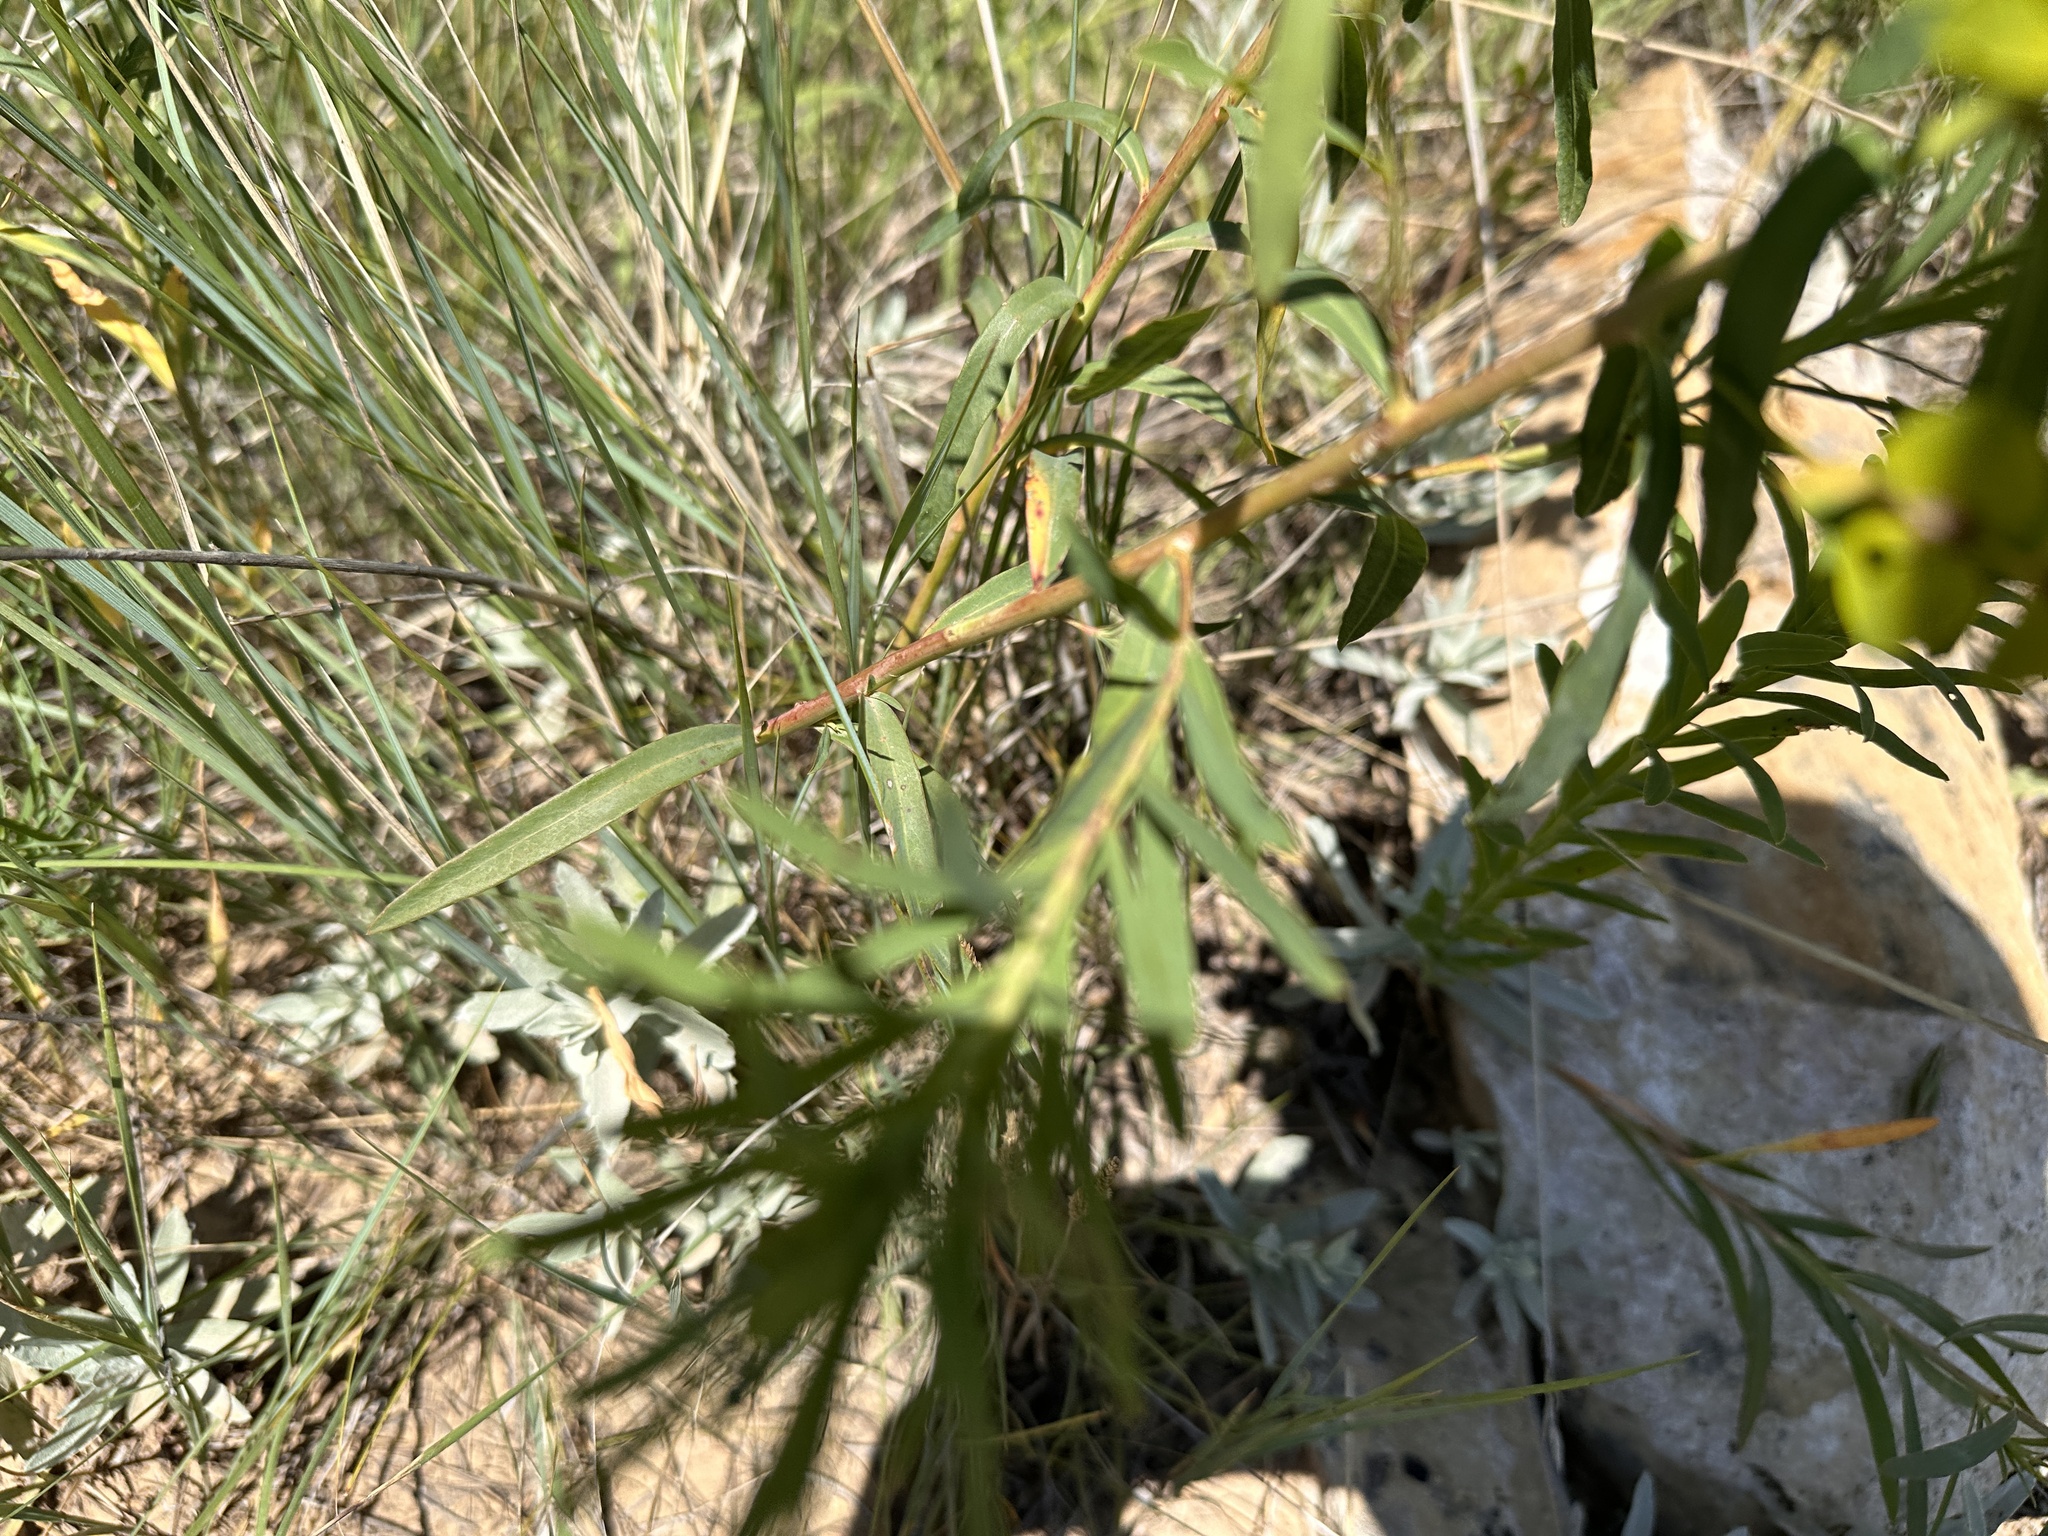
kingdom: Plantae
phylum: Tracheophyta
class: Magnoliopsida
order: Malpighiales
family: Euphorbiaceae
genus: Euphorbia
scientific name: Euphorbia virgata
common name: Leafy spurge
